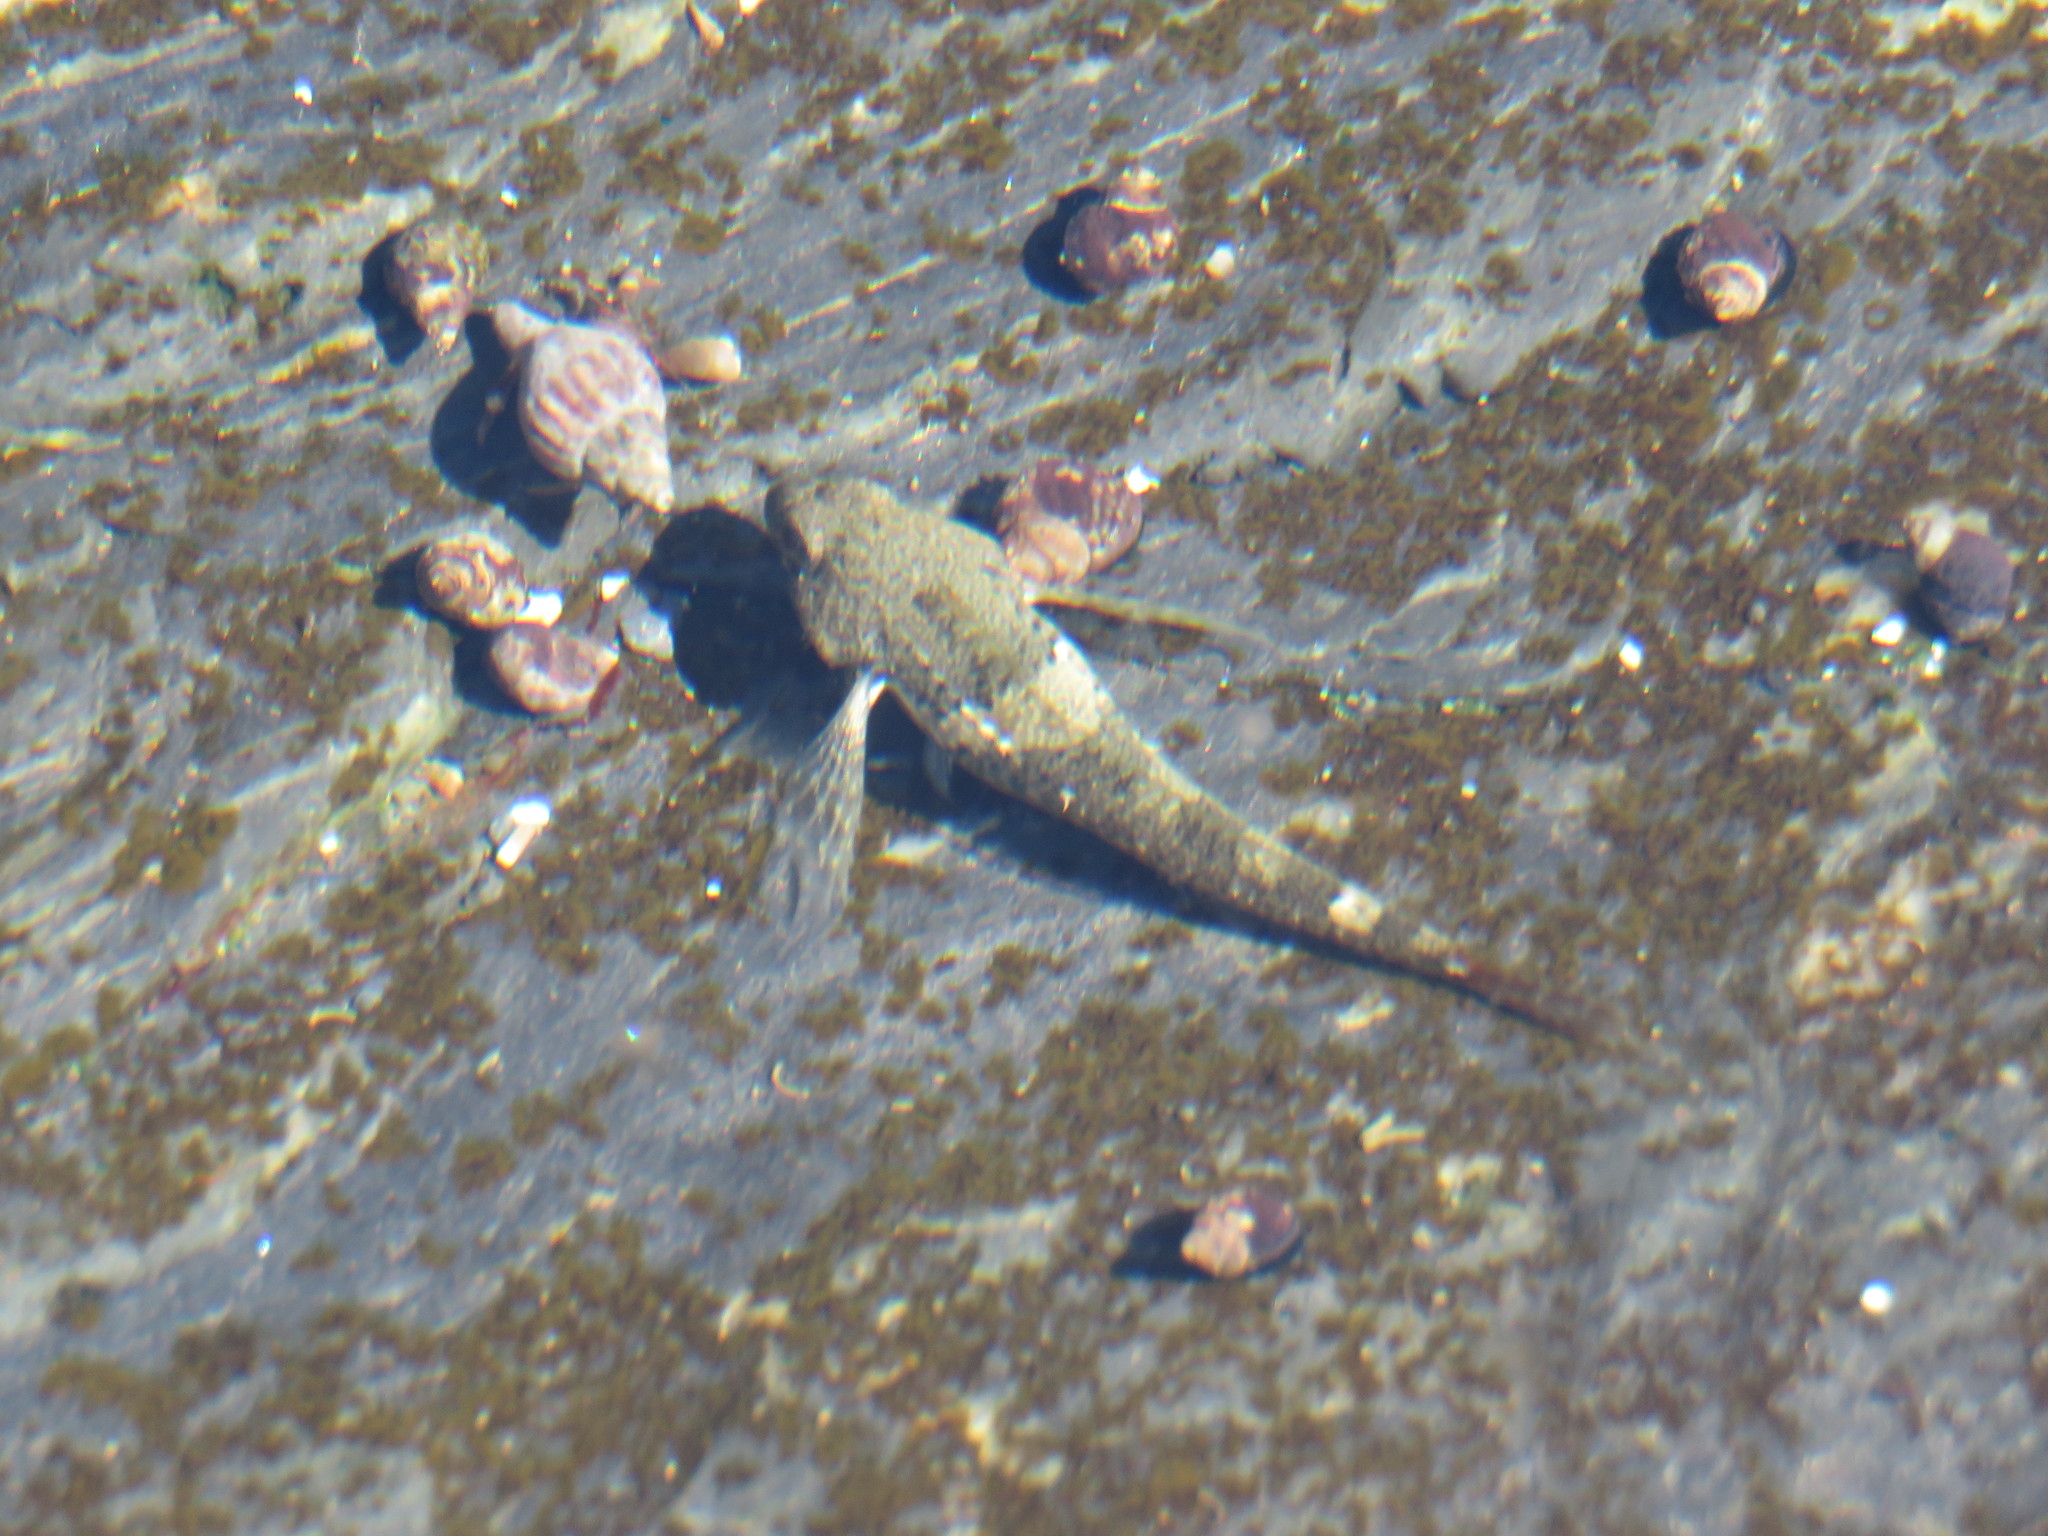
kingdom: Animalia
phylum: Chordata
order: Scorpaeniformes
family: Cottidae
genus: Oligocottus
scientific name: Oligocottus maculosus
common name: Tidepool sculpin
